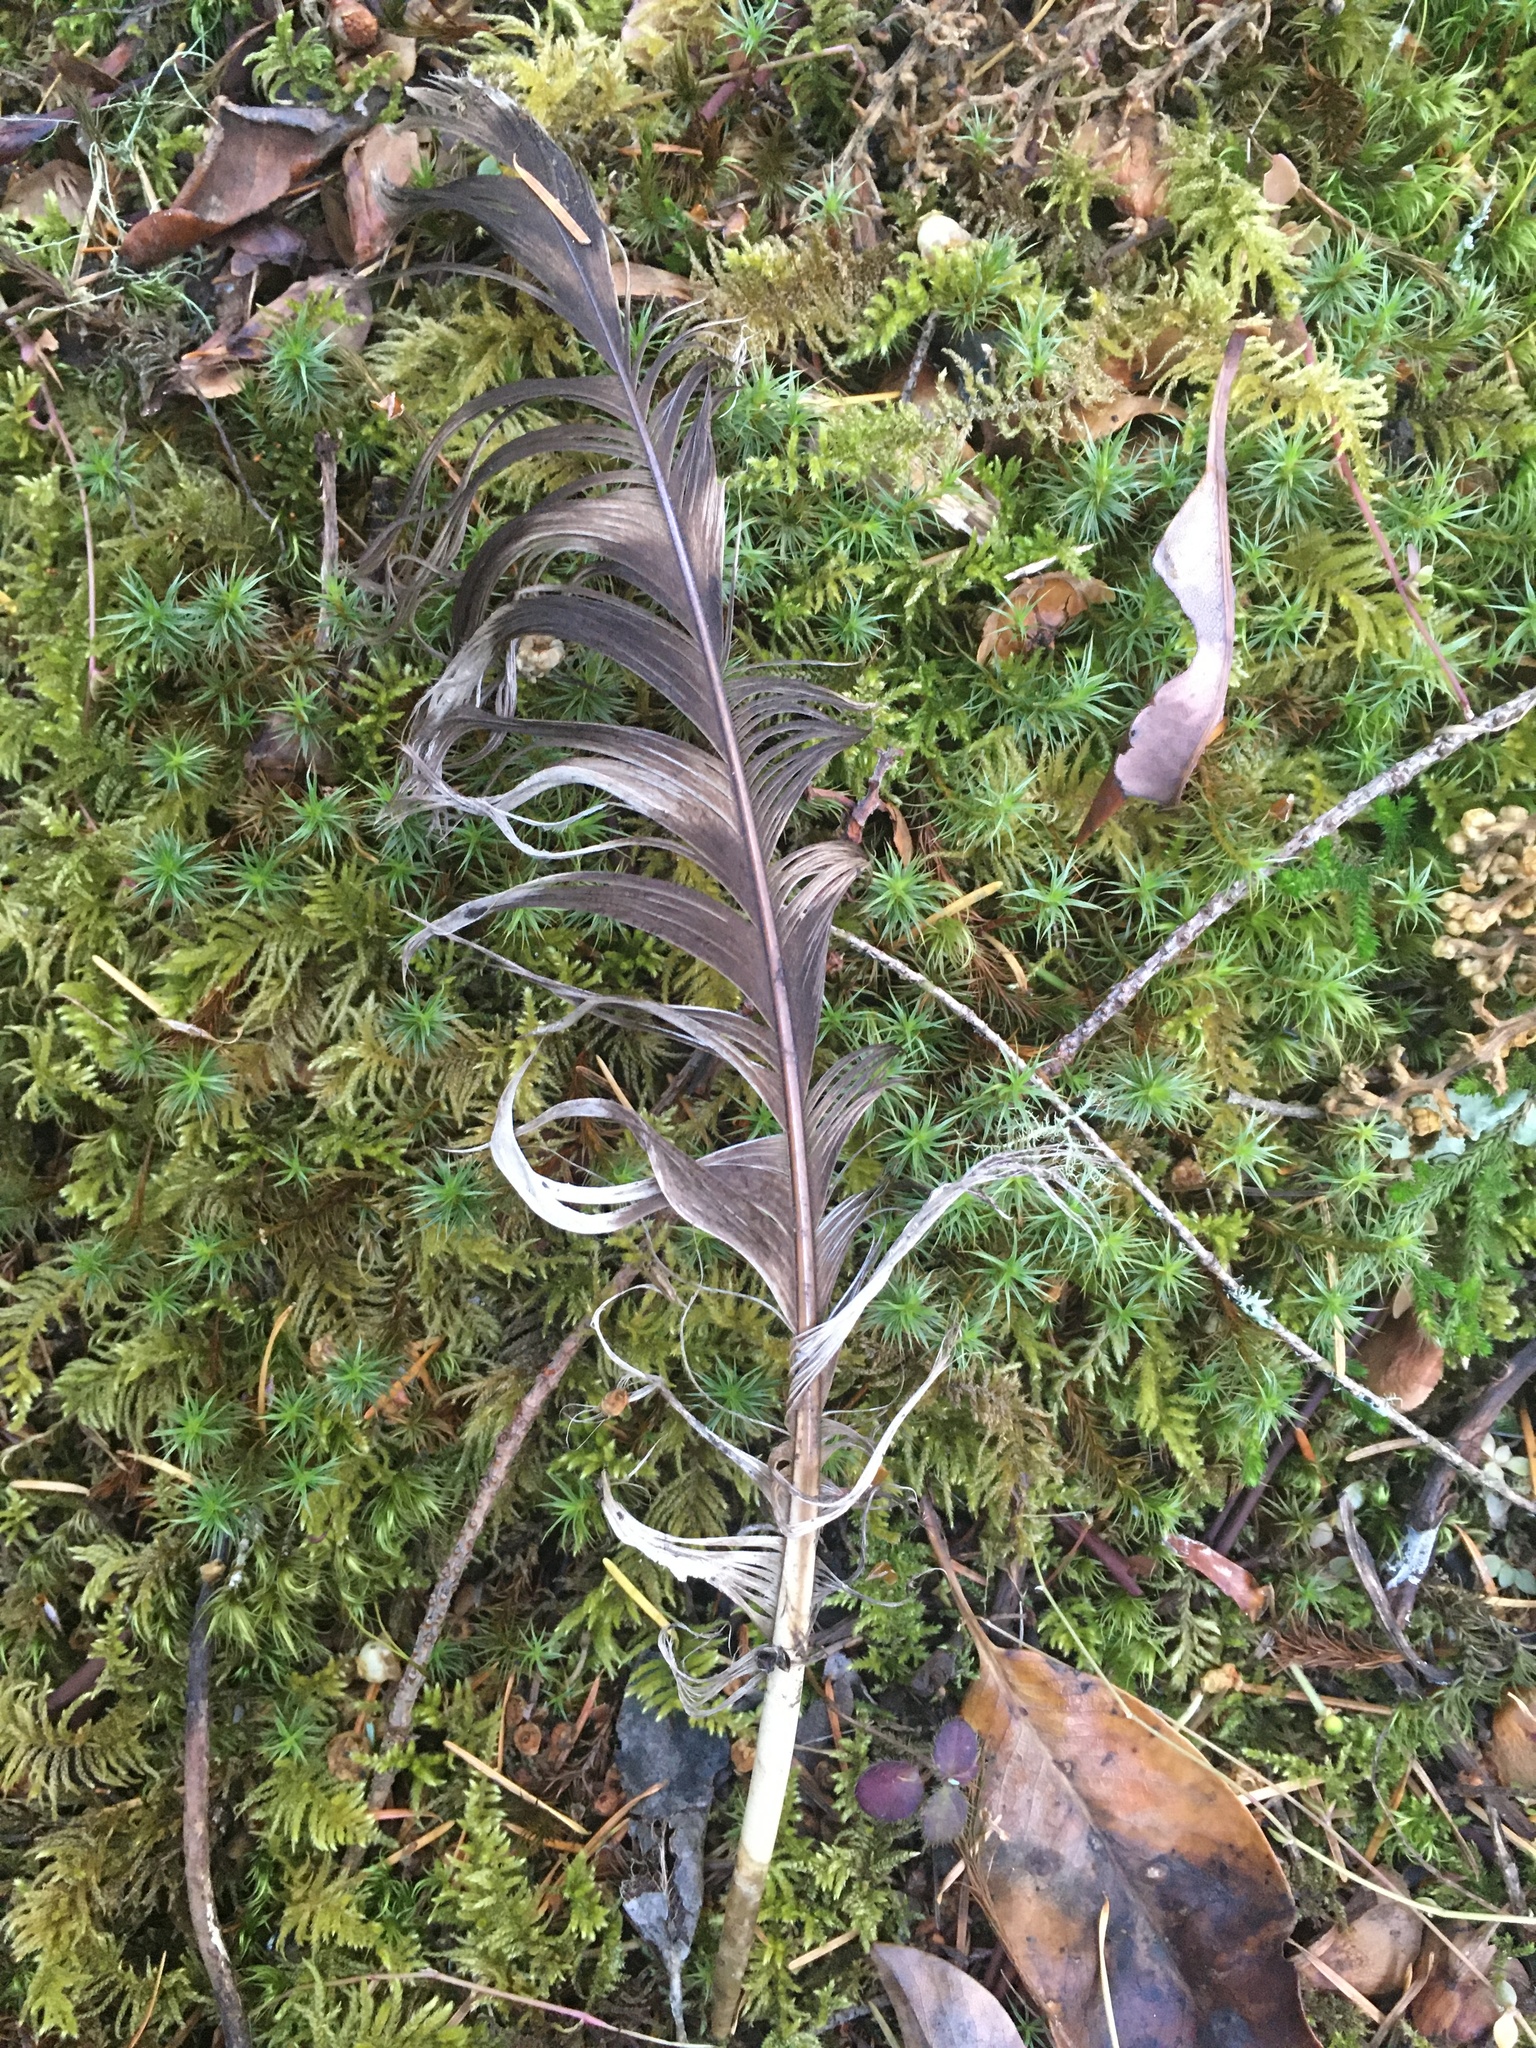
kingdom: Animalia
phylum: Chordata
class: Aves
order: Strigiformes
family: Strigidae
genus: Strix
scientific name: Strix varia
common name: Barred owl
